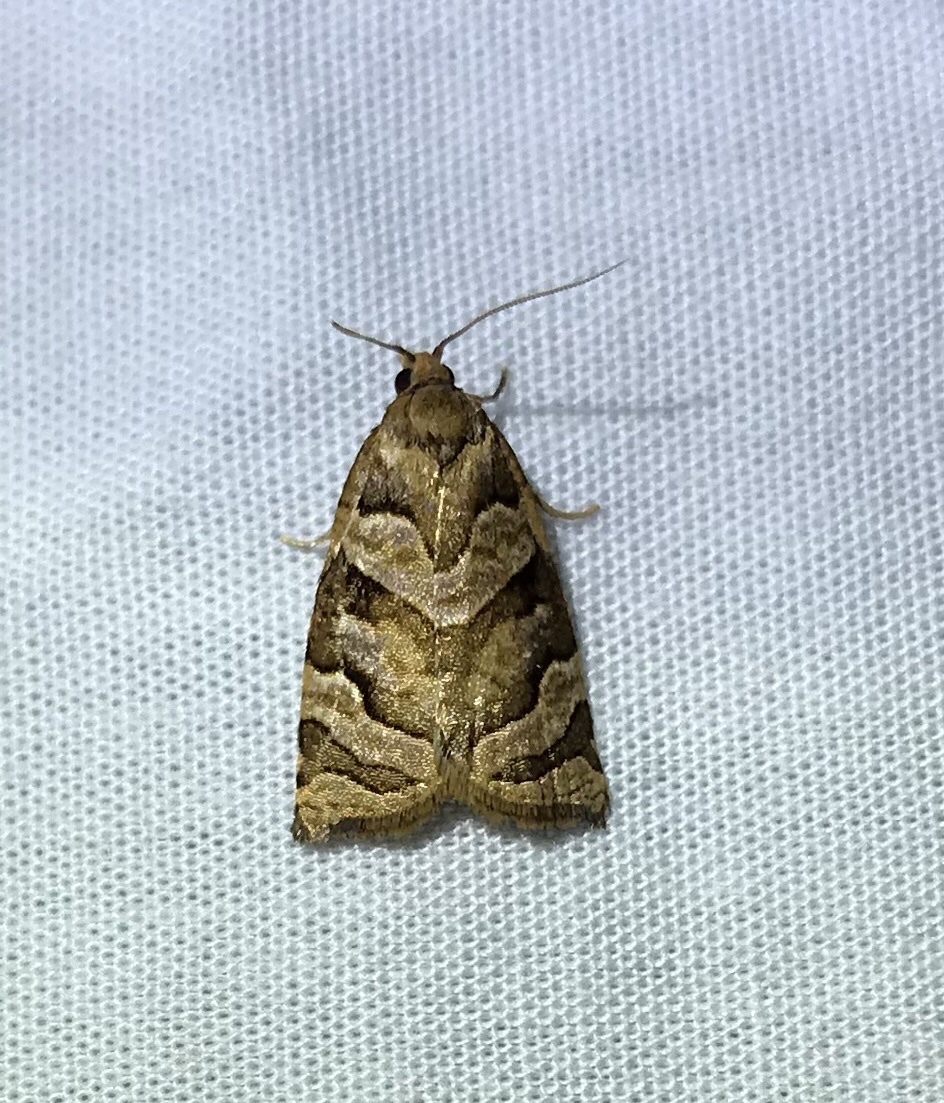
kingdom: Animalia
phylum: Arthropoda
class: Insecta
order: Lepidoptera
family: Tortricidae
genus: Apoctena
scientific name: Apoctena tigris
